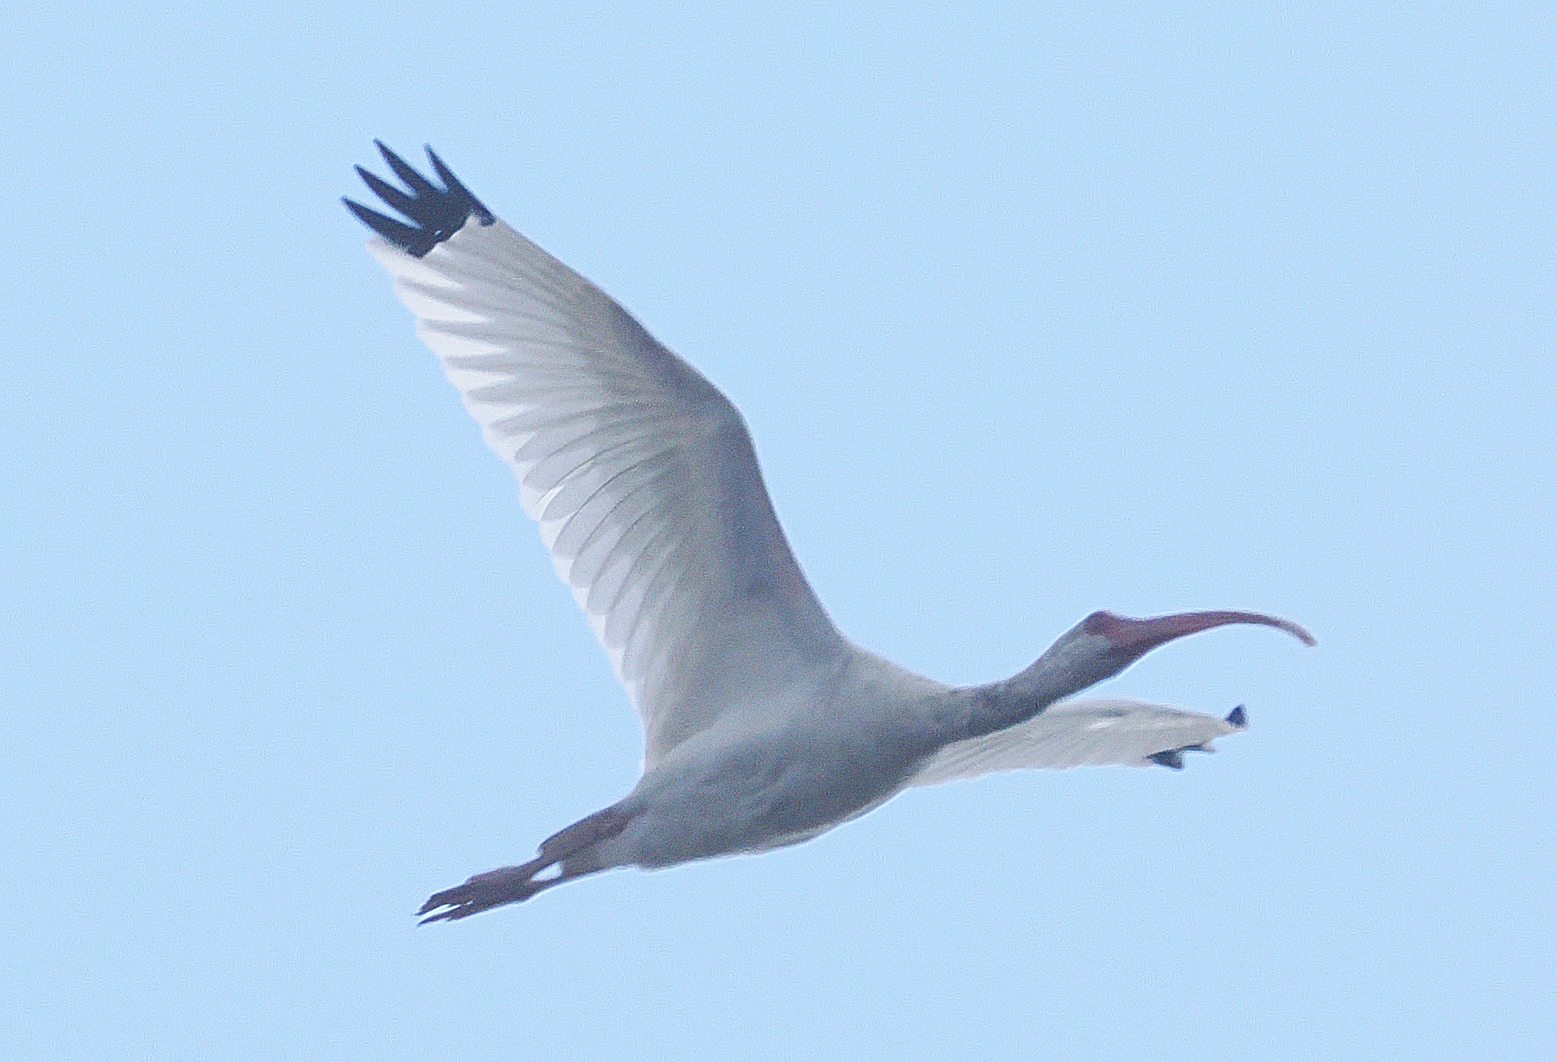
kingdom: Animalia
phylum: Chordata
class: Aves
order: Pelecaniformes
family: Threskiornithidae
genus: Eudocimus
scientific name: Eudocimus albus
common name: White ibis
